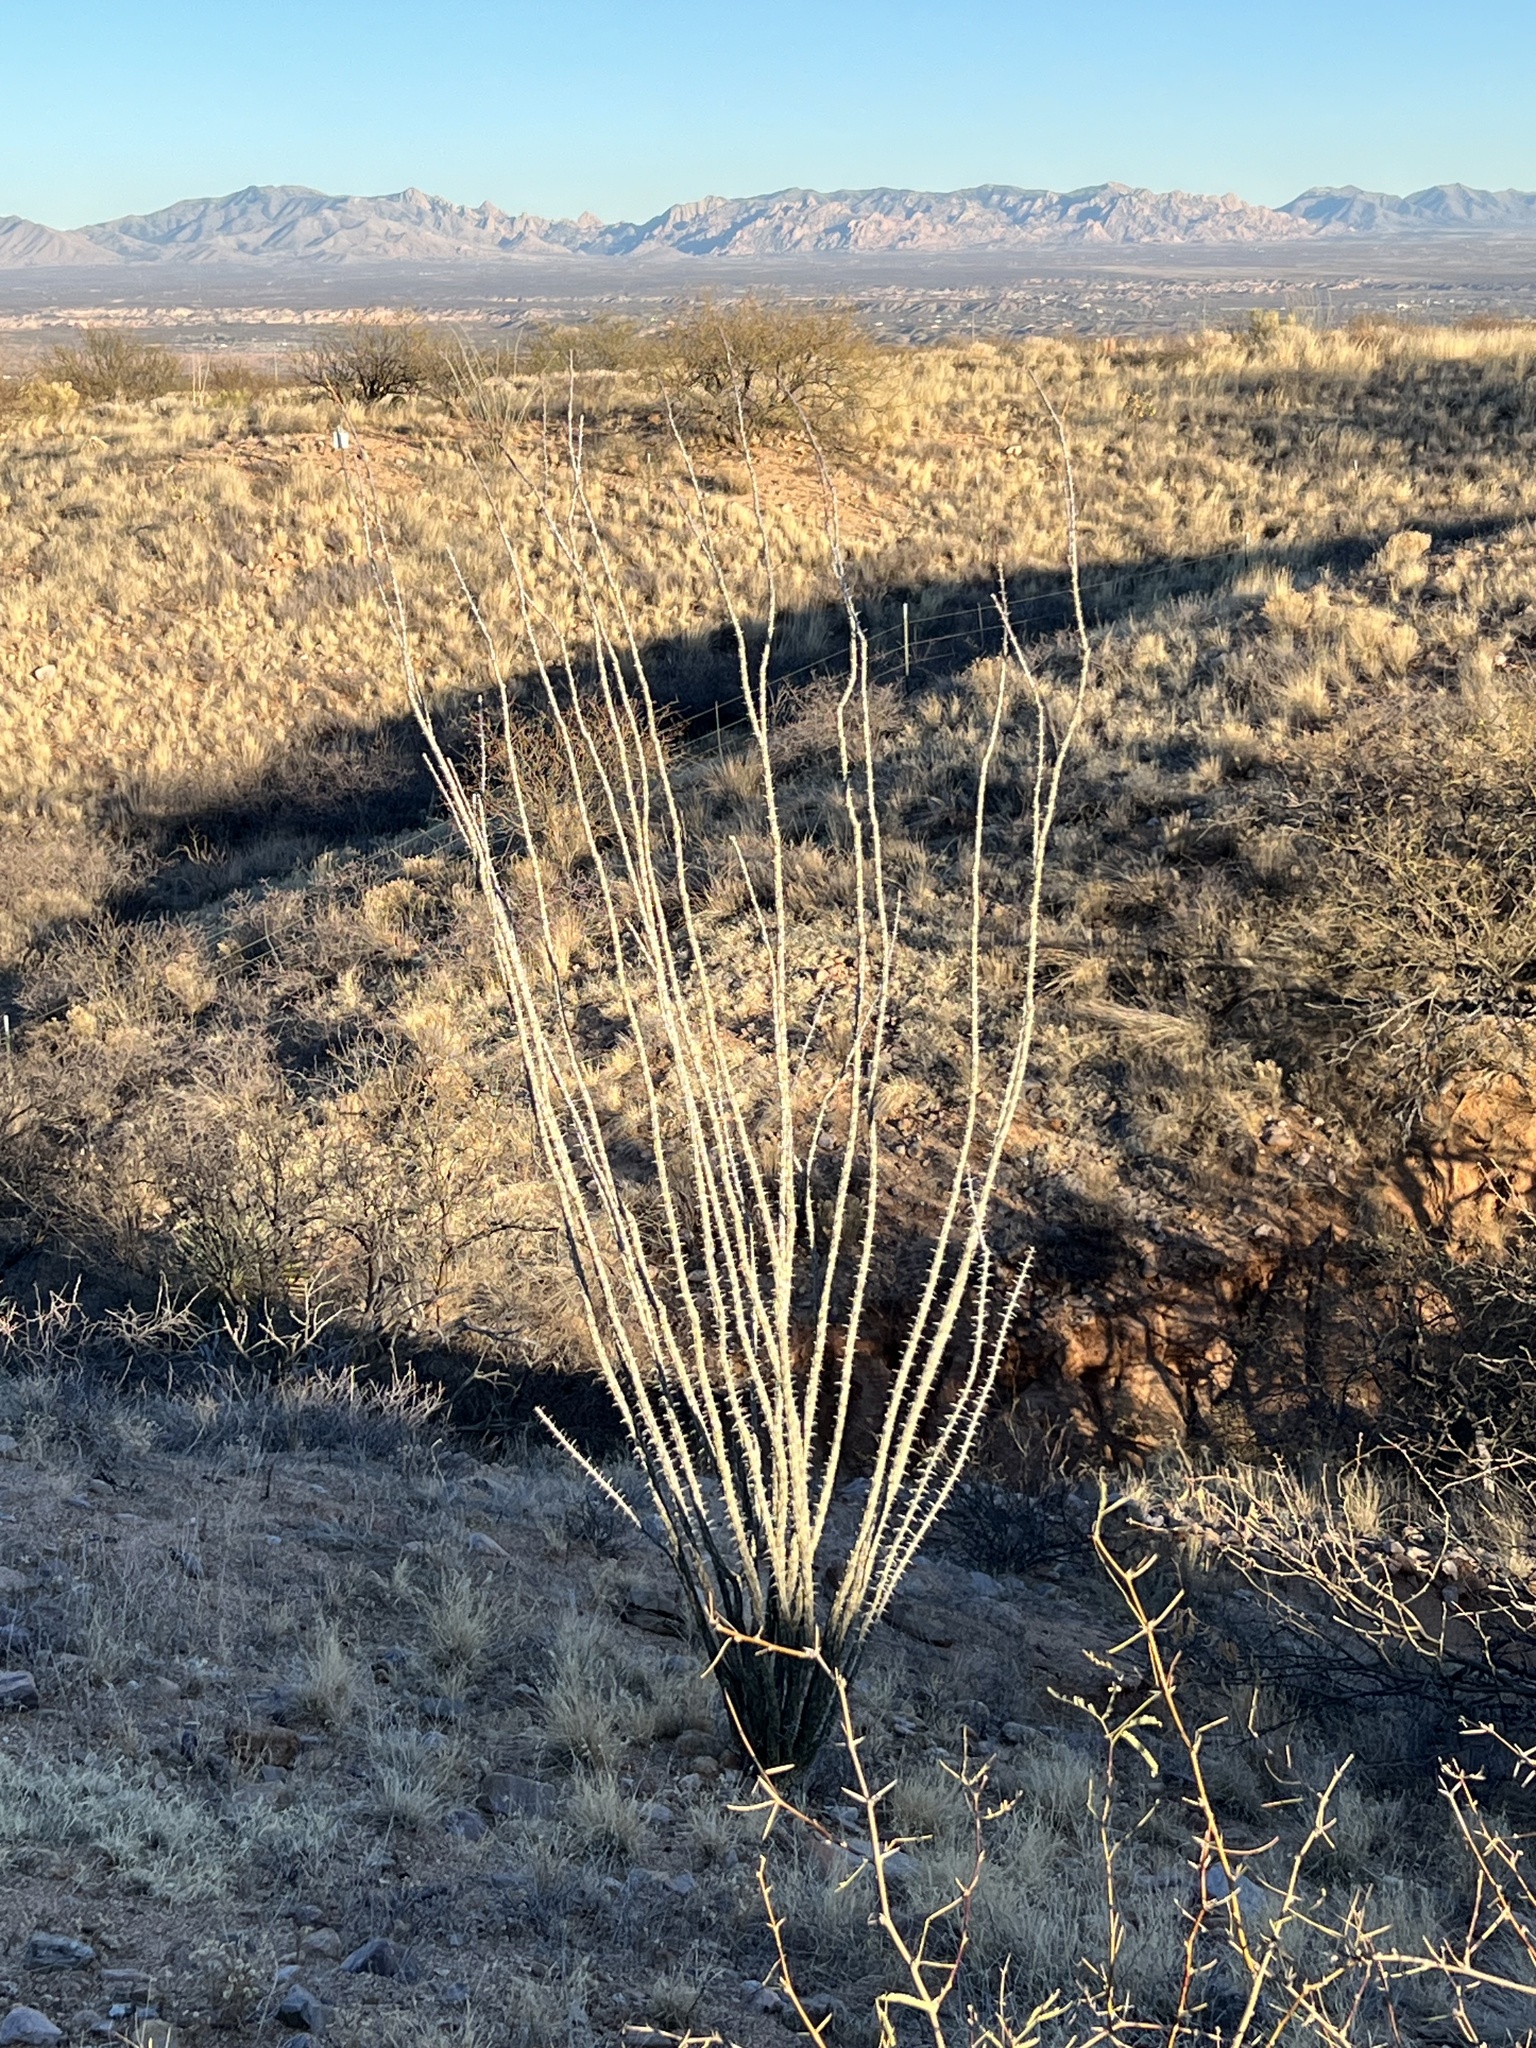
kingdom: Plantae
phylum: Tracheophyta
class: Magnoliopsida
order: Ericales
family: Fouquieriaceae
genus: Fouquieria
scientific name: Fouquieria splendens
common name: Vine-cactus
